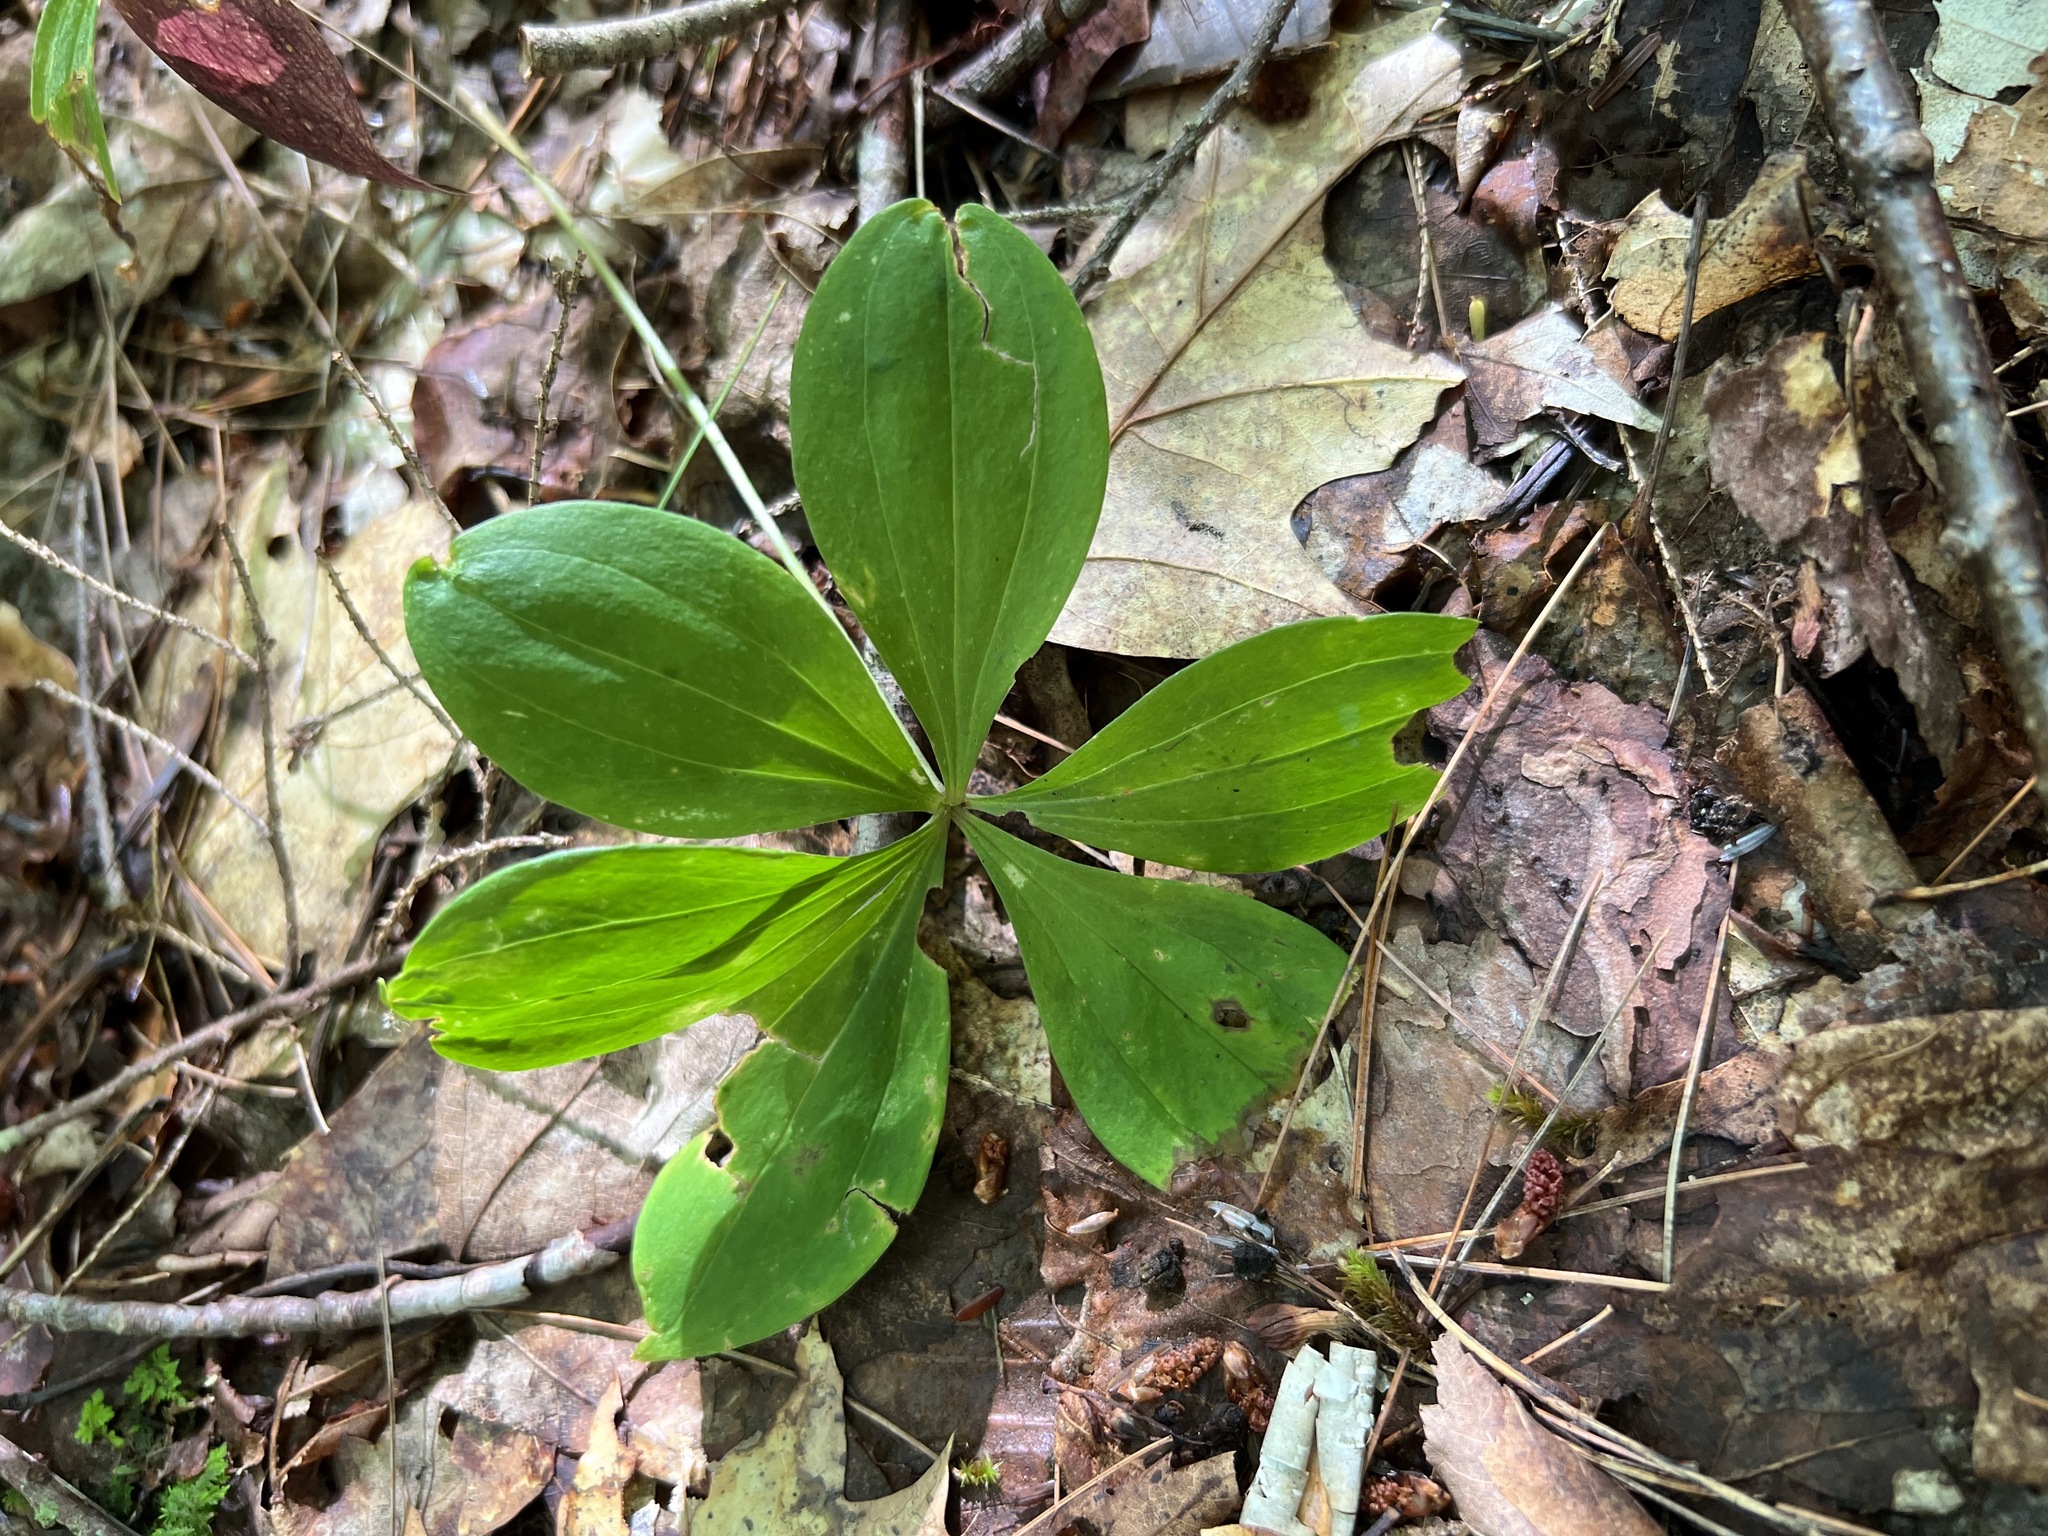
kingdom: Plantae
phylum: Tracheophyta
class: Liliopsida
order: Liliales
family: Liliaceae
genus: Medeola
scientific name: Medeola virginiana
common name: Indian cucumber-root
